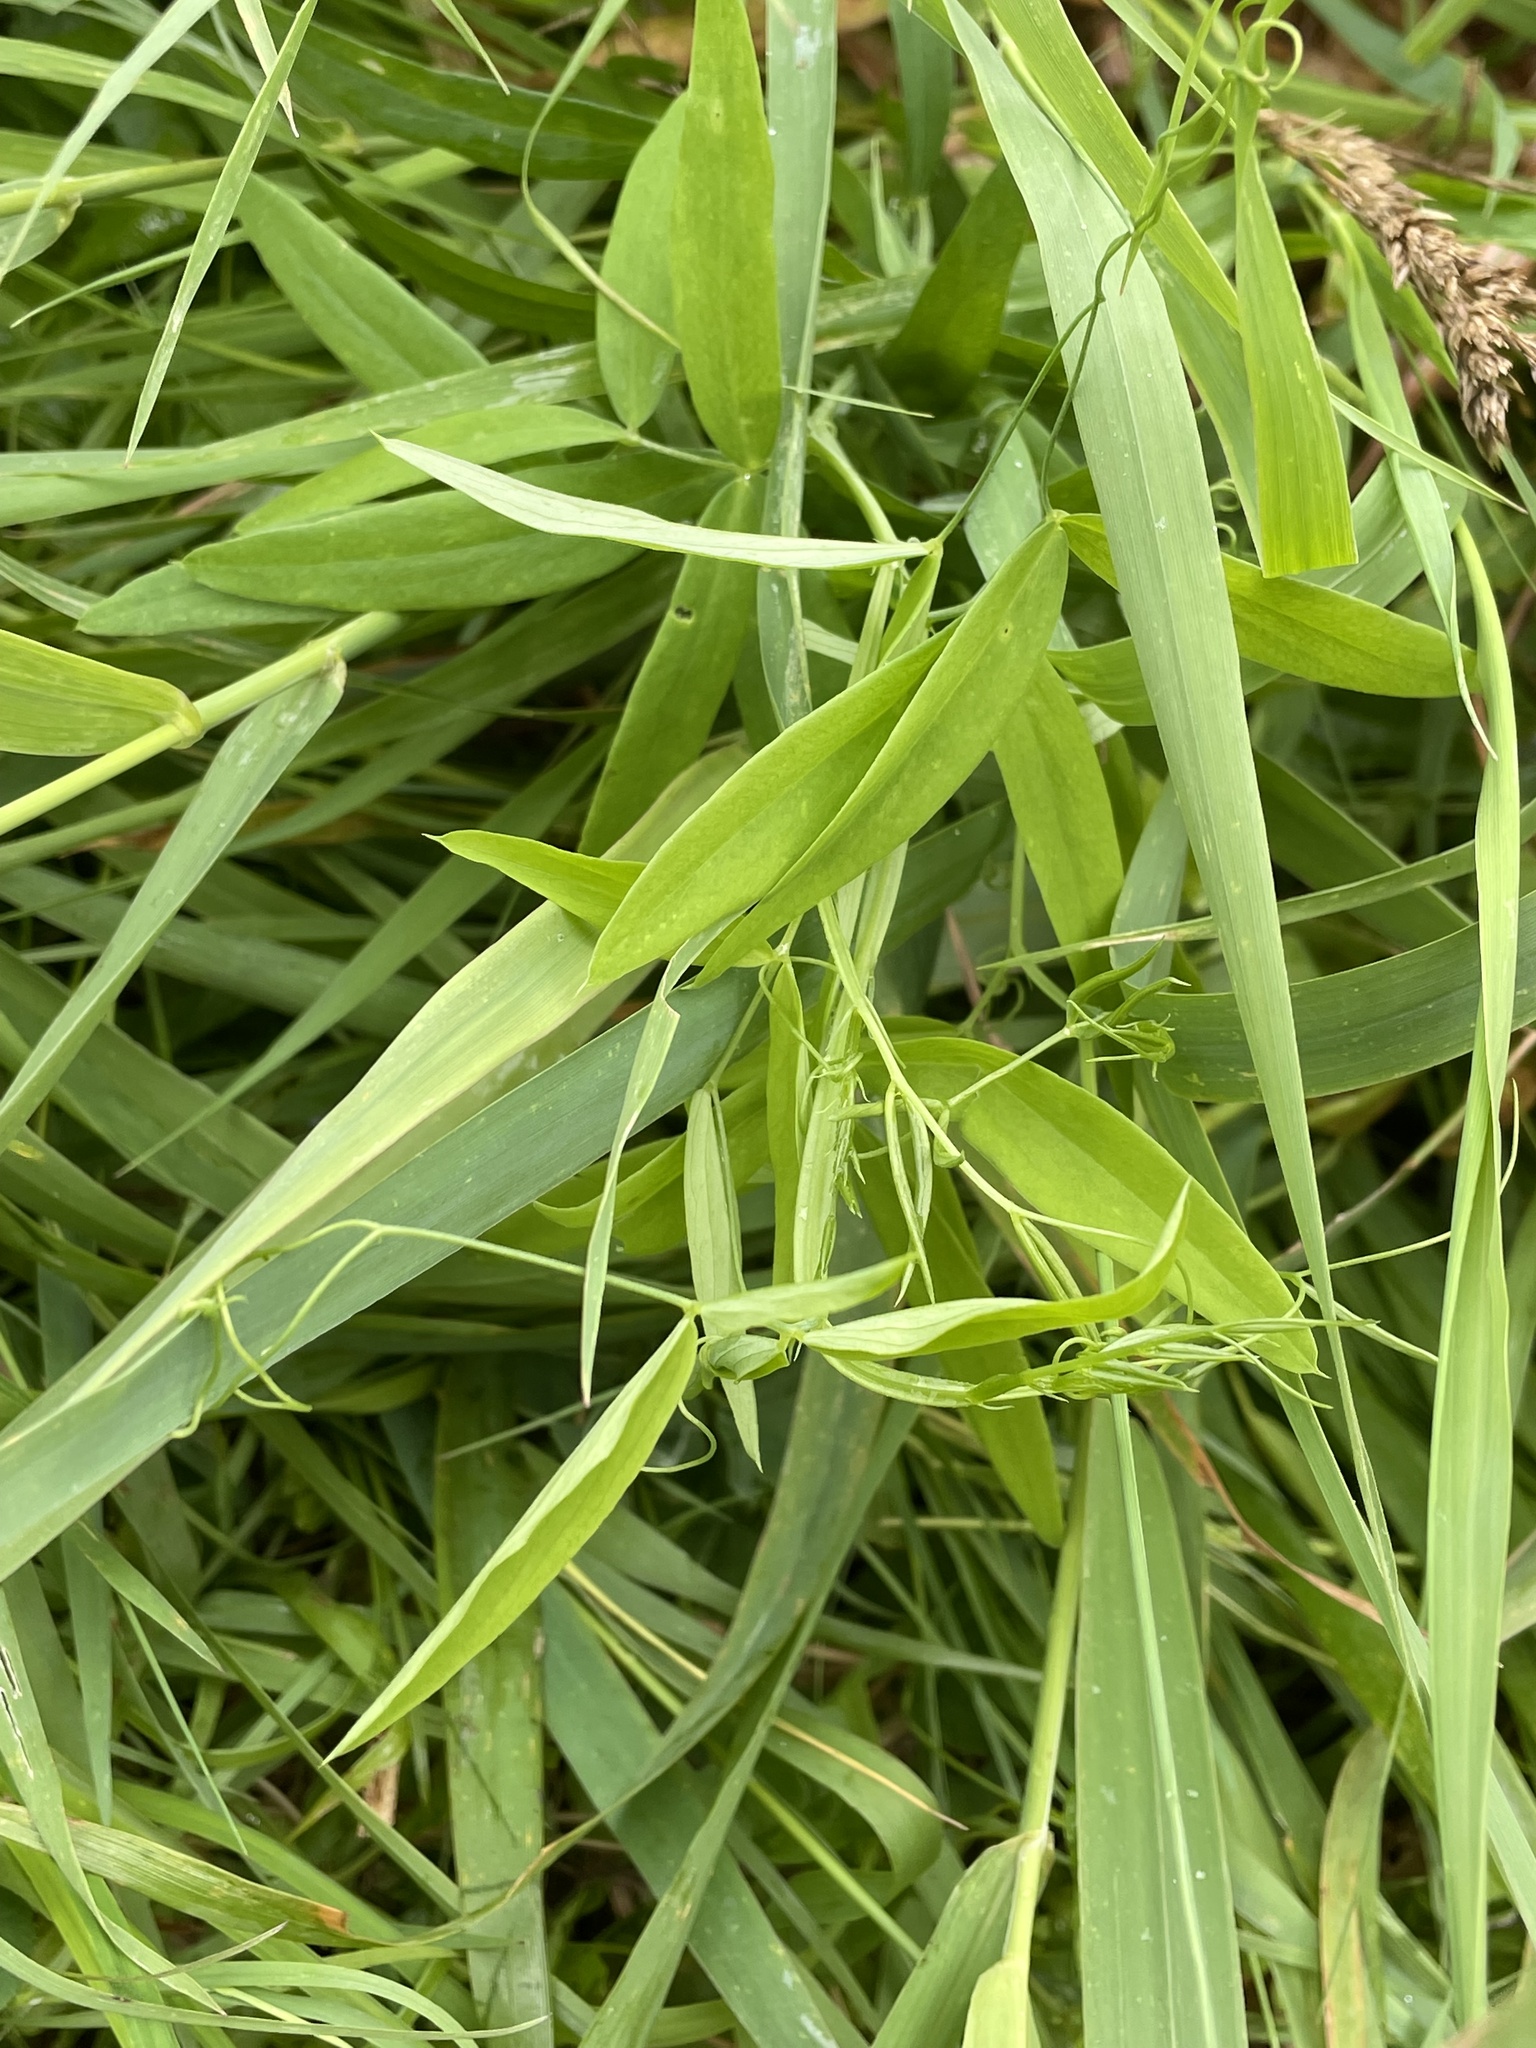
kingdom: Plantae
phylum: Tracheophyta
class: Magnoliopsida
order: Fabales
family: Fabaceae
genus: Lathyrus
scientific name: Lathyrus sylvestris
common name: Flat pea
